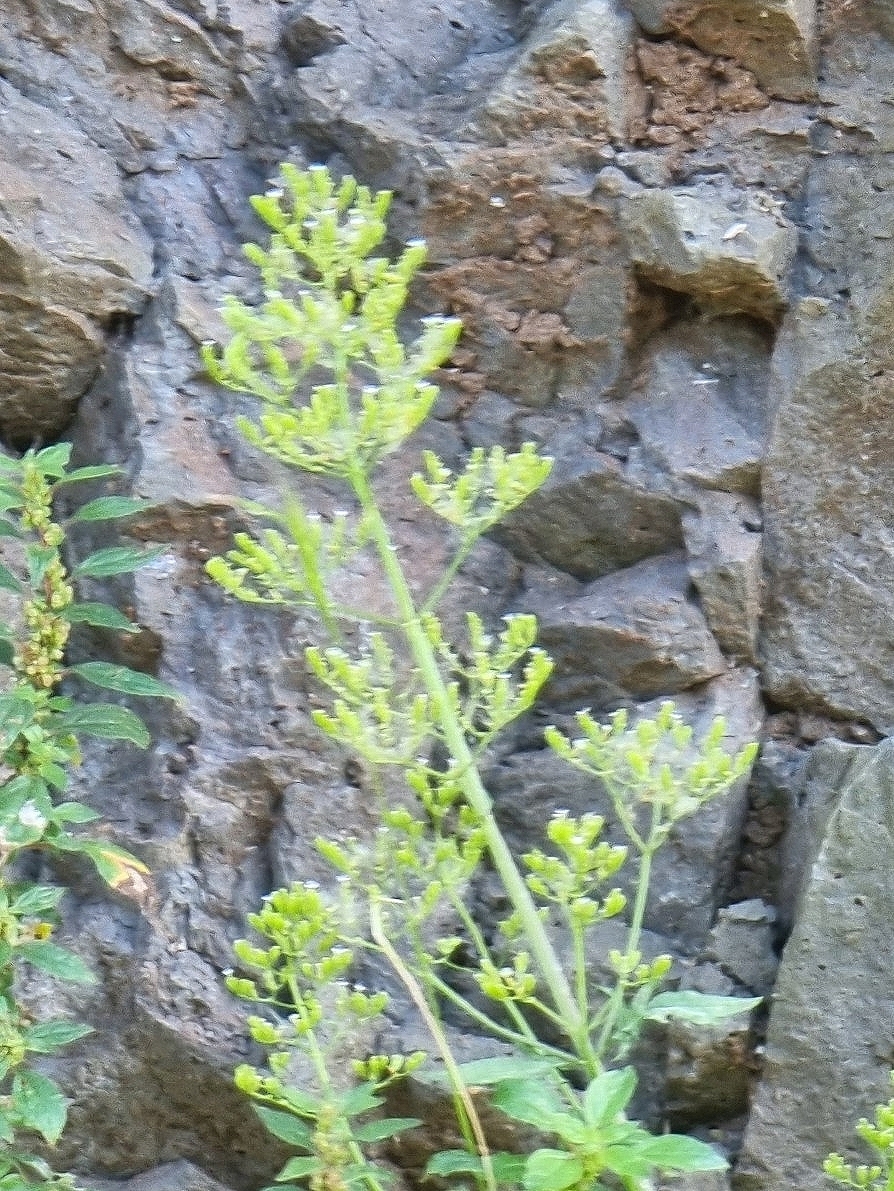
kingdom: Plantae
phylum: Tracheophyta
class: Magnoliopsida
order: Dipsacales
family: Caprifoliaceae
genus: Centranthus
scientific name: Centranthus calcitrapae
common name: Annual valerian
